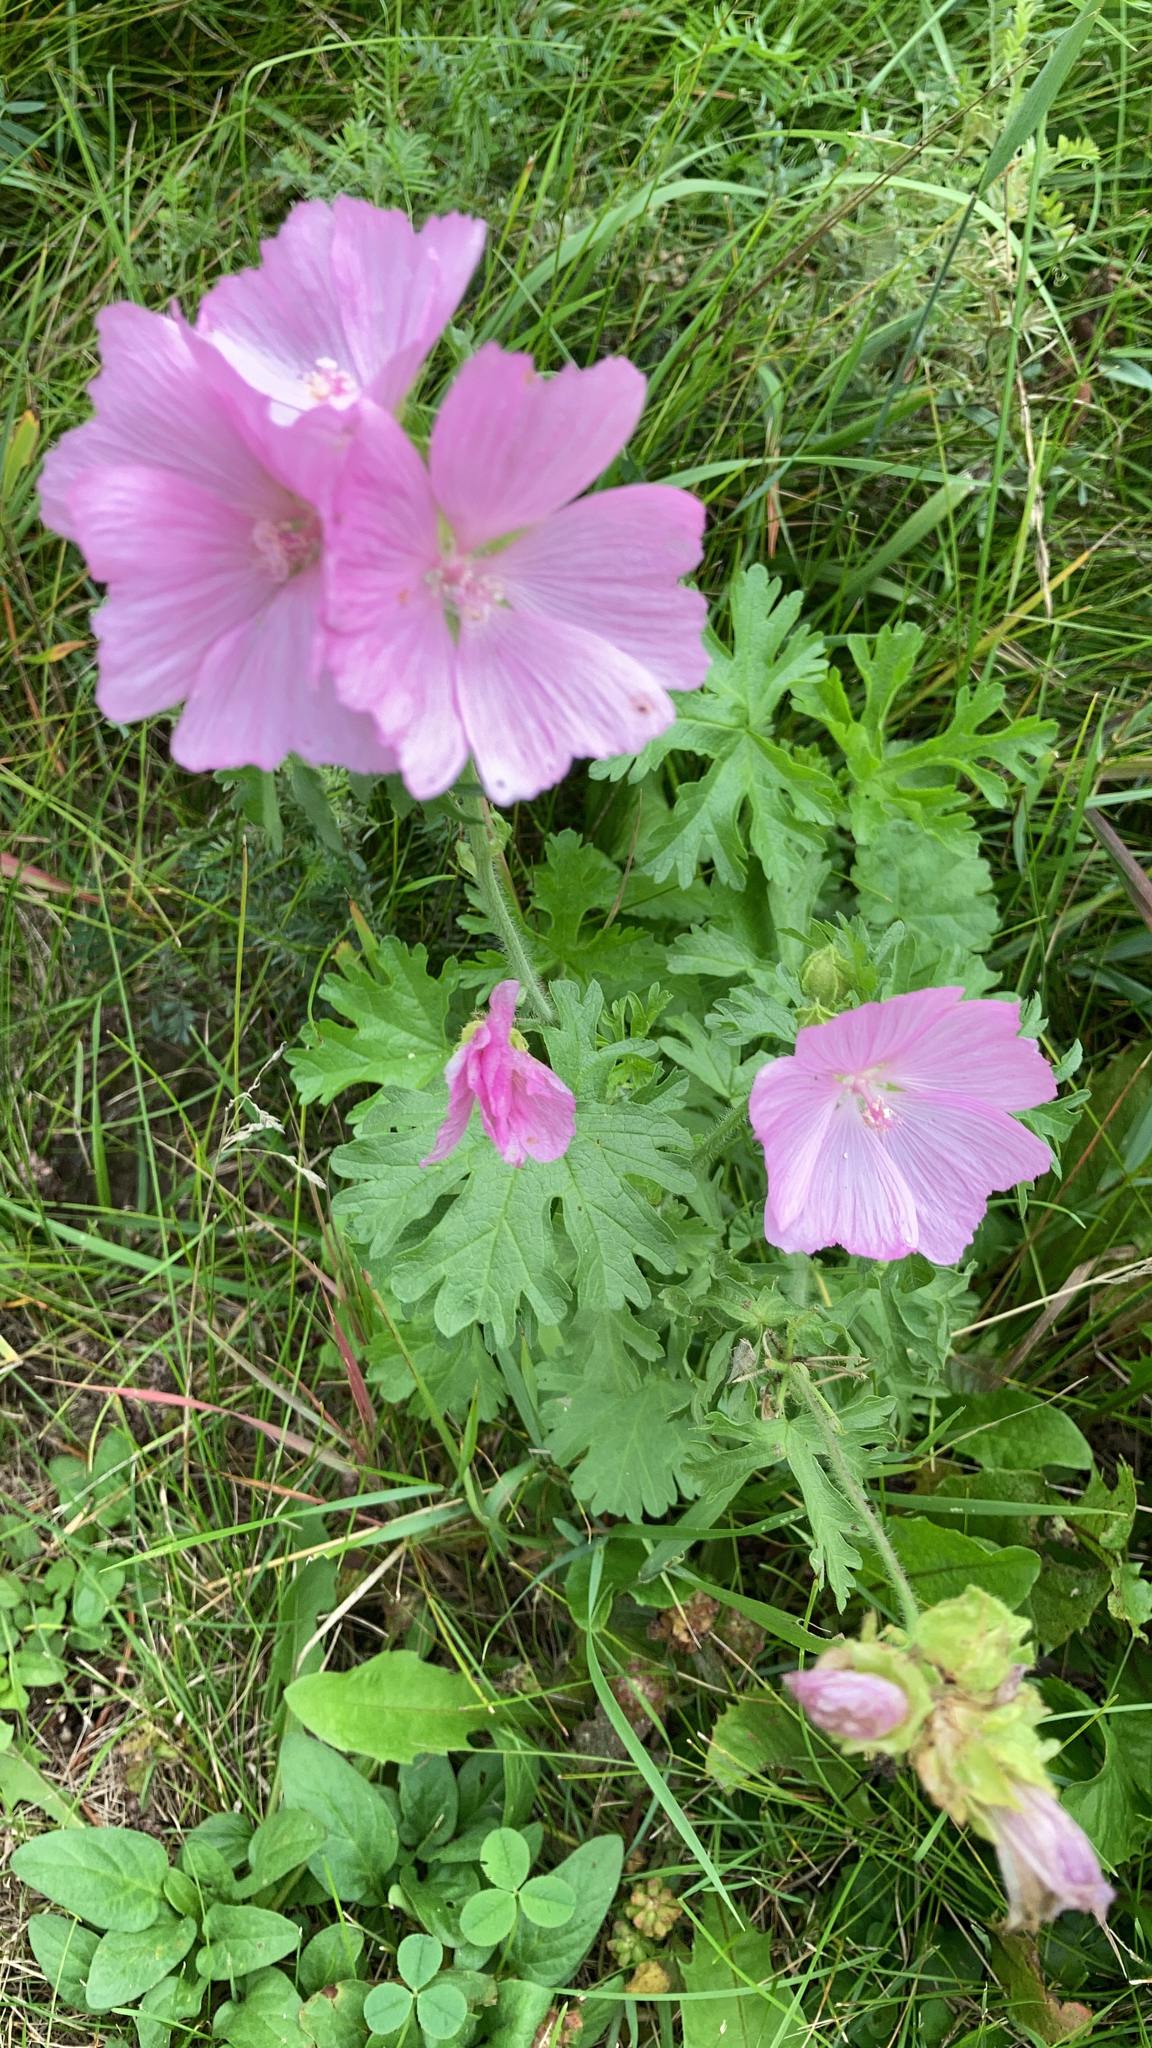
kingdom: Plantae
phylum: Tracheophyta
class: Magnoliopsida
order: Malvales
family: Malvaceae
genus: Malva
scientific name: Malva moschata
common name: Musk mallow
